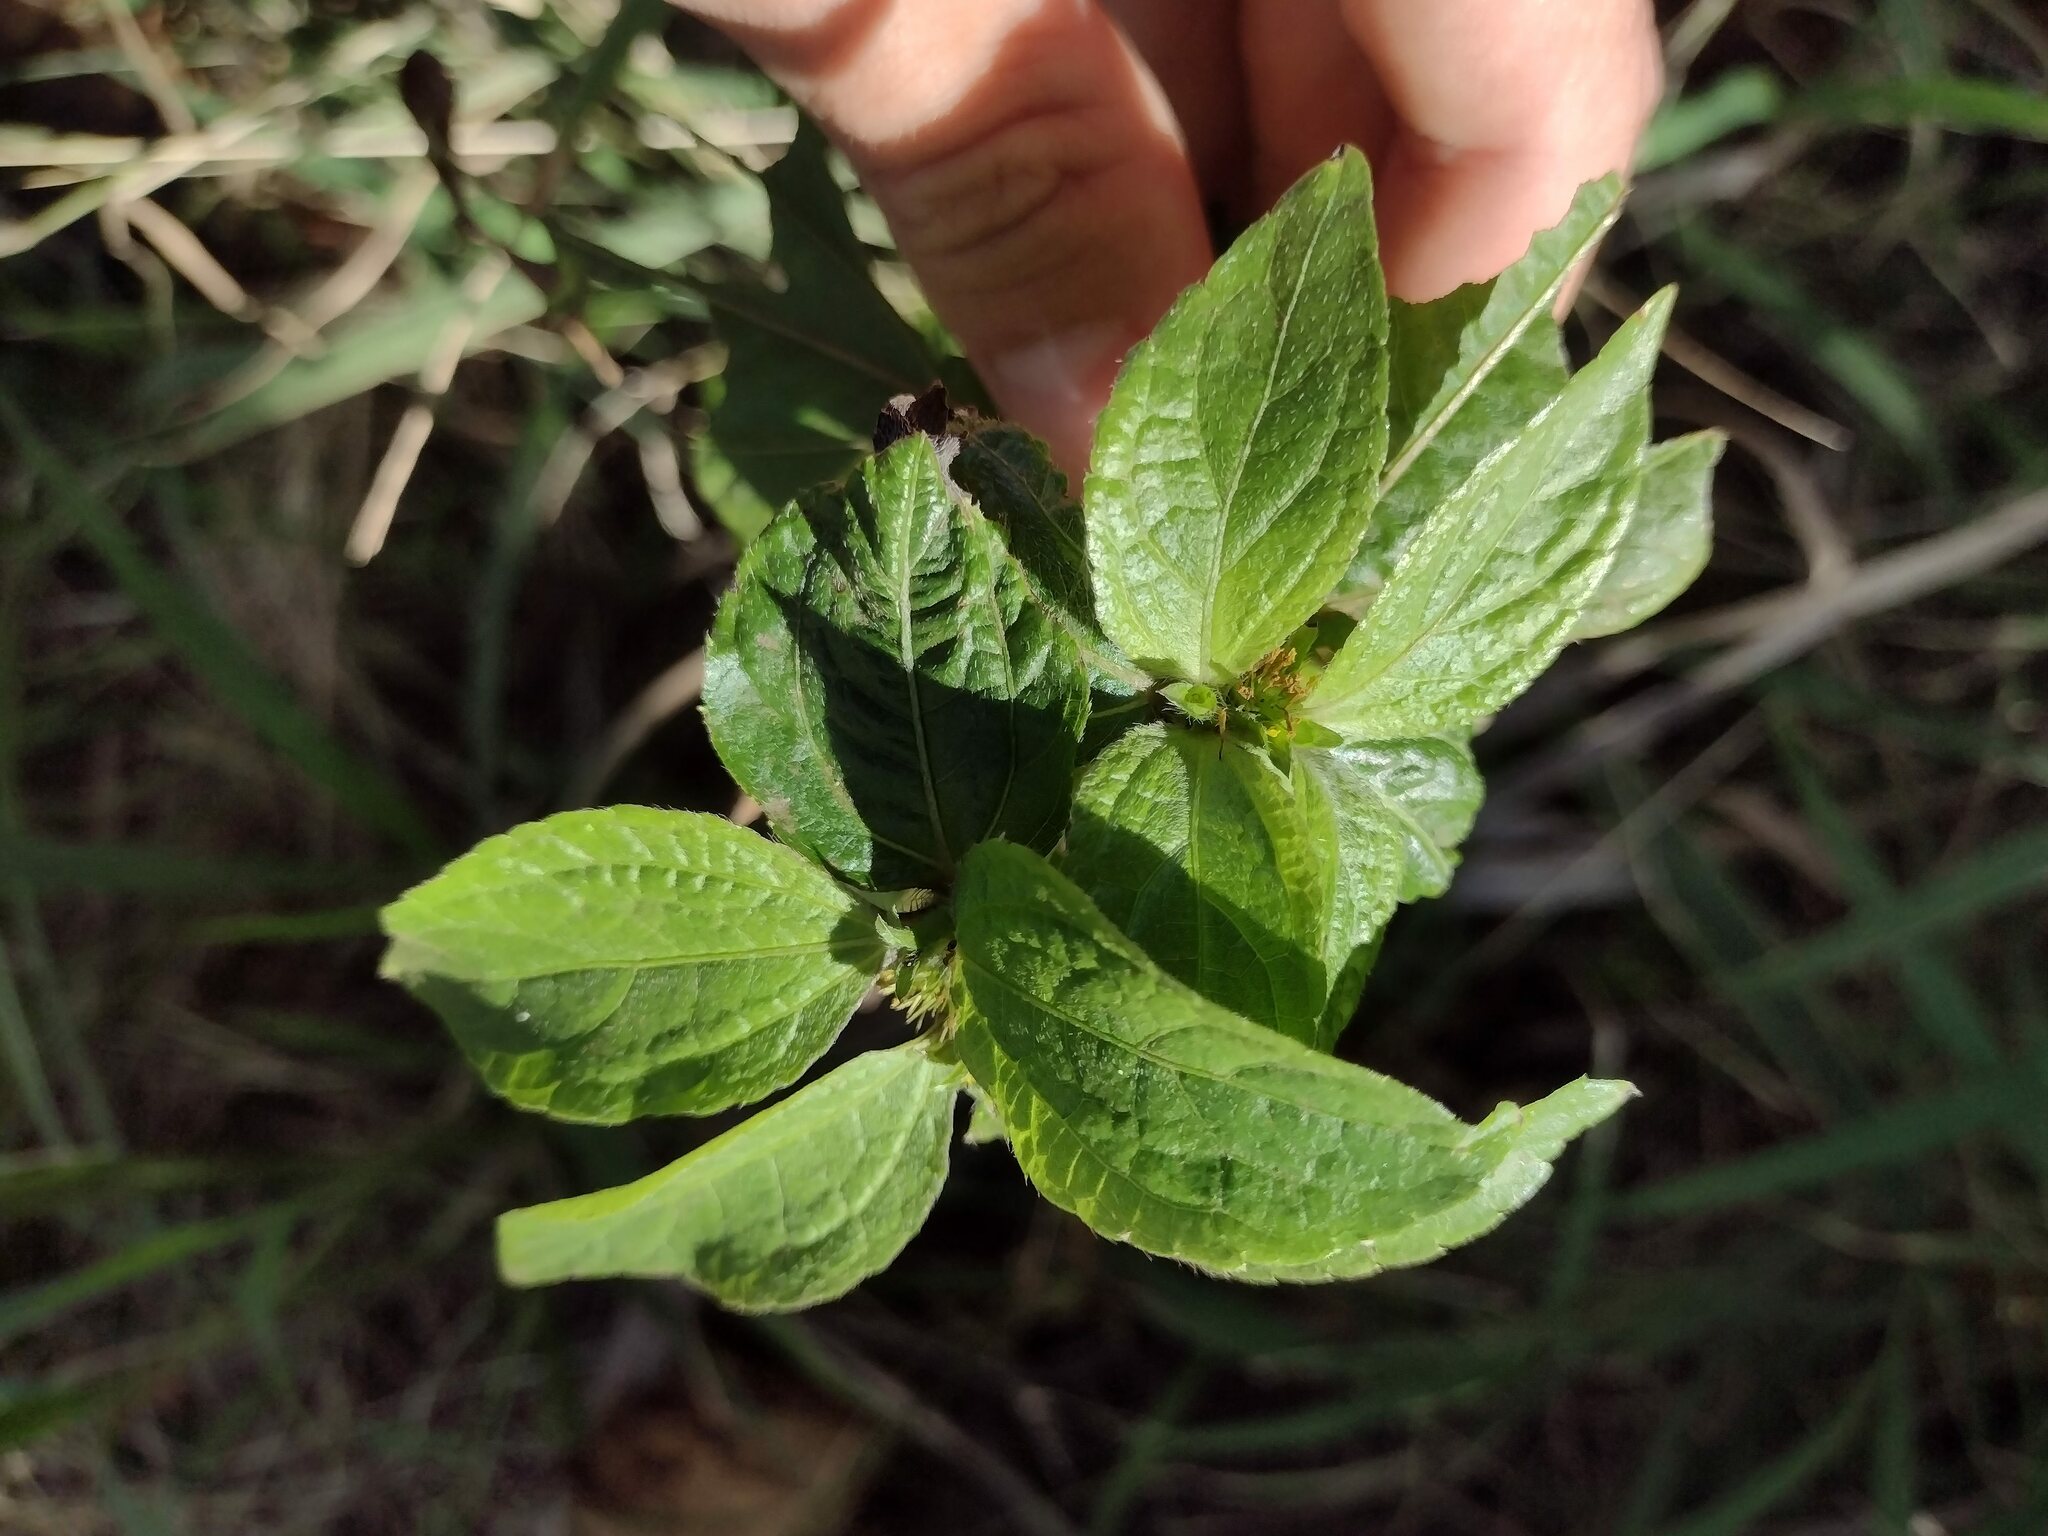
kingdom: Plantae
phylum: Tracheophyta
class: Magnoliopsida
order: Asterales
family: Asteraceae
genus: Synedrella
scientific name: Synedrella nodiflora
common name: Nodeweed
